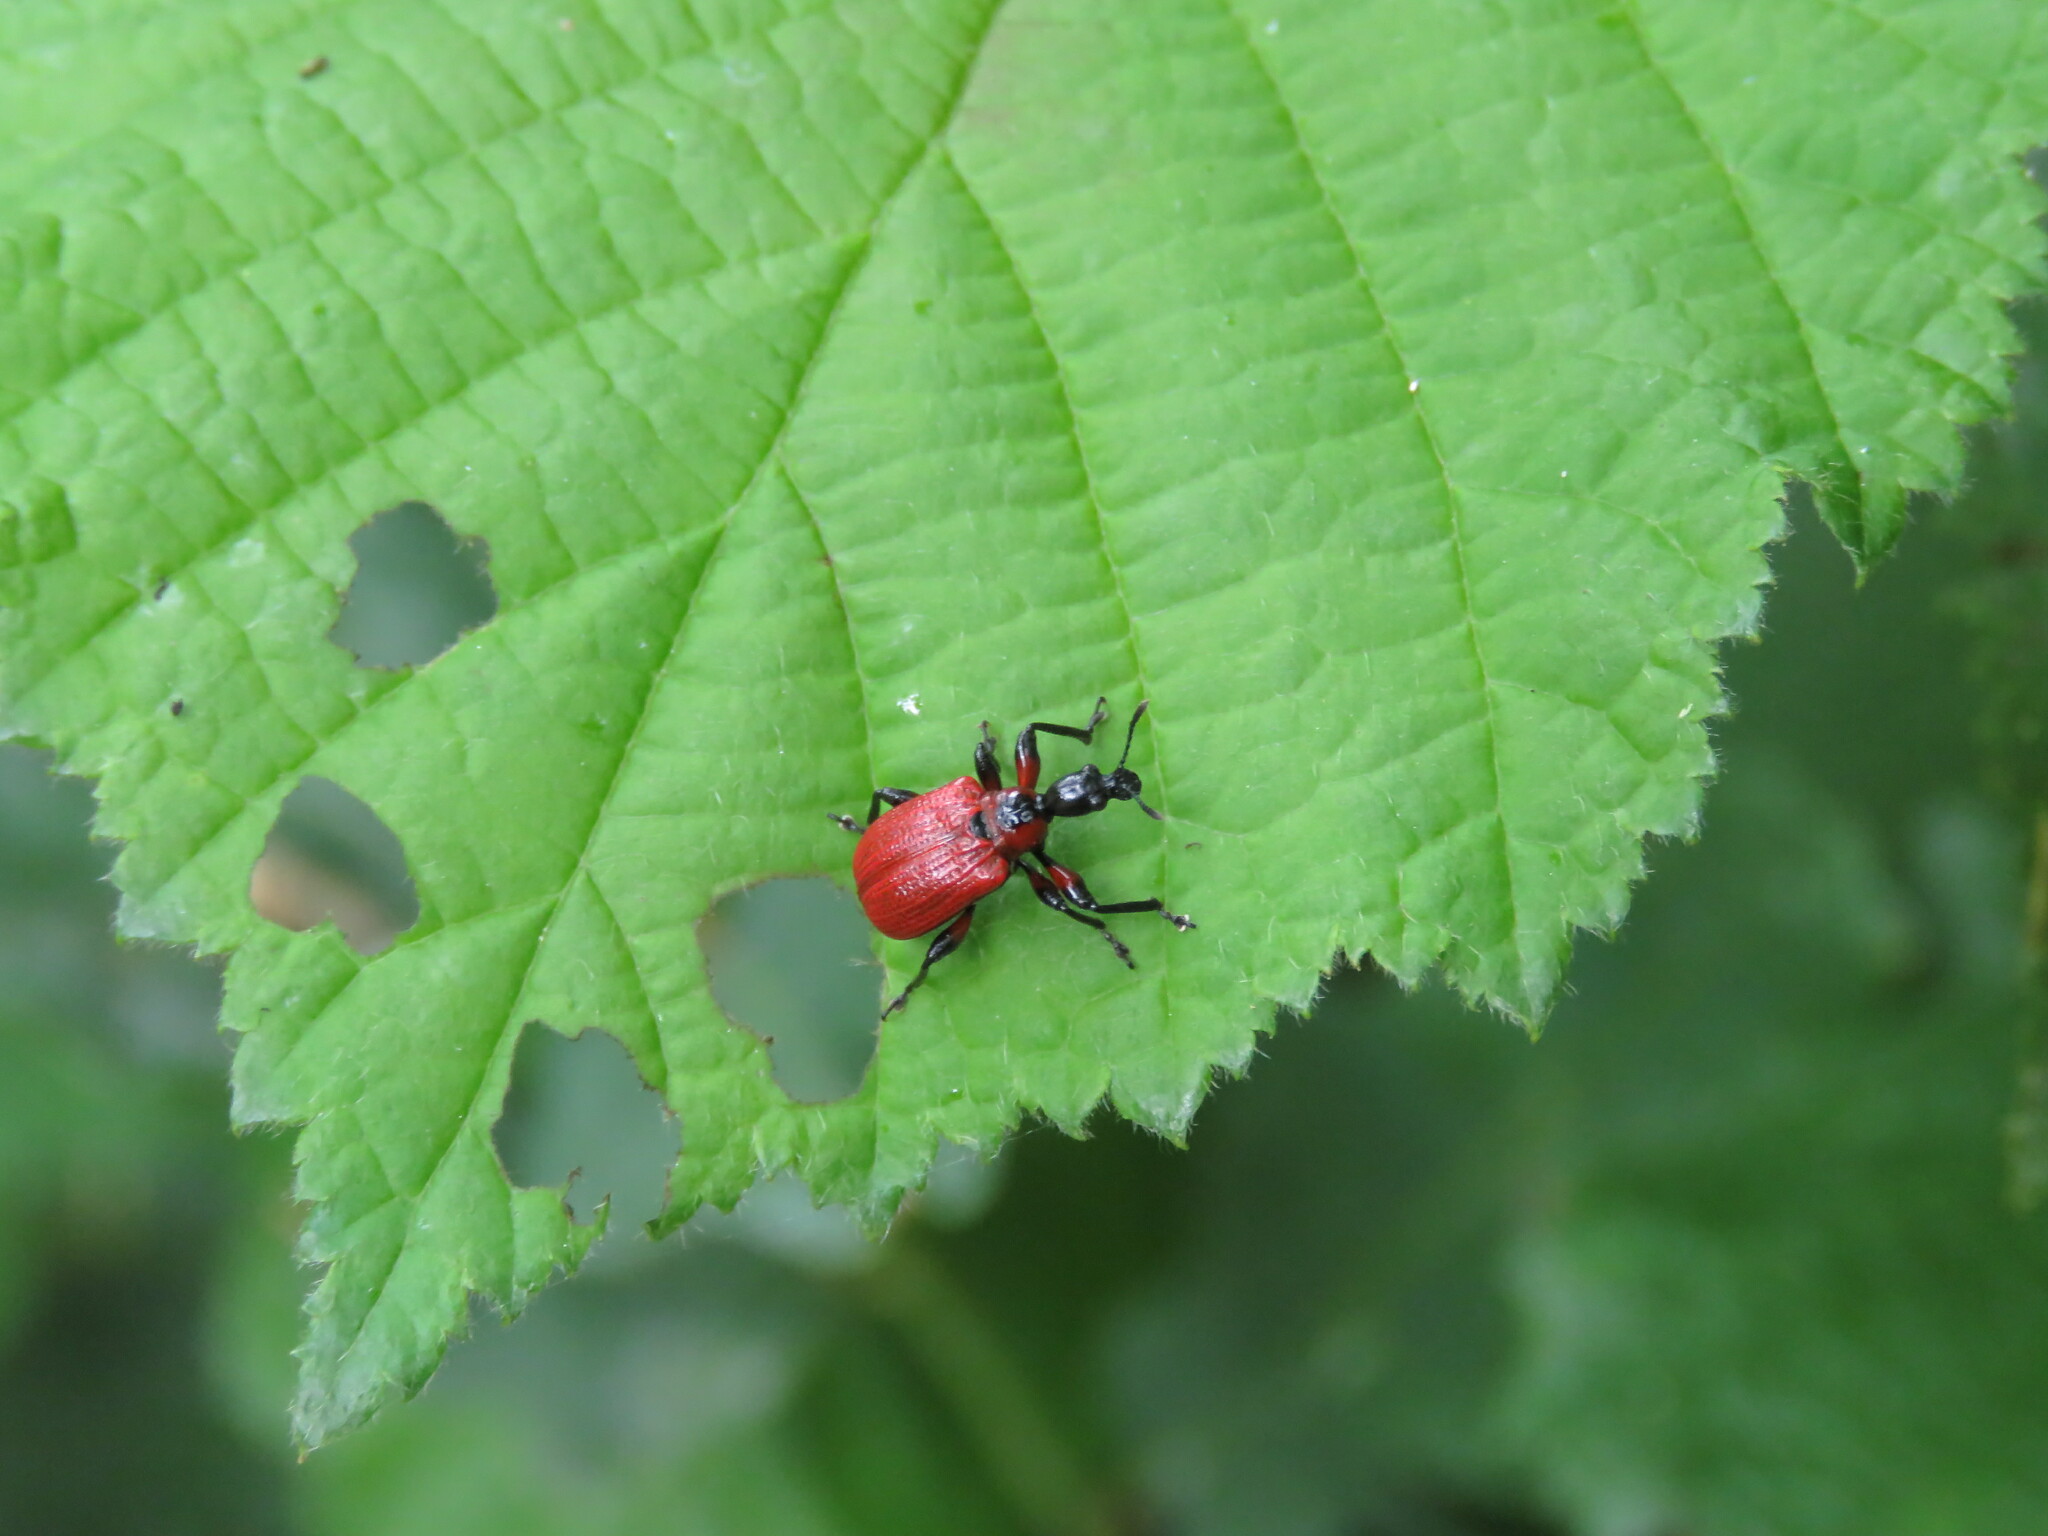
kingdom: Animalia
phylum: Arthropoda
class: Insecta
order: Coleoptera
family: Attelabidae
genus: Apoderus
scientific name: Apoderus coryli
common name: Hazel leaf roller
